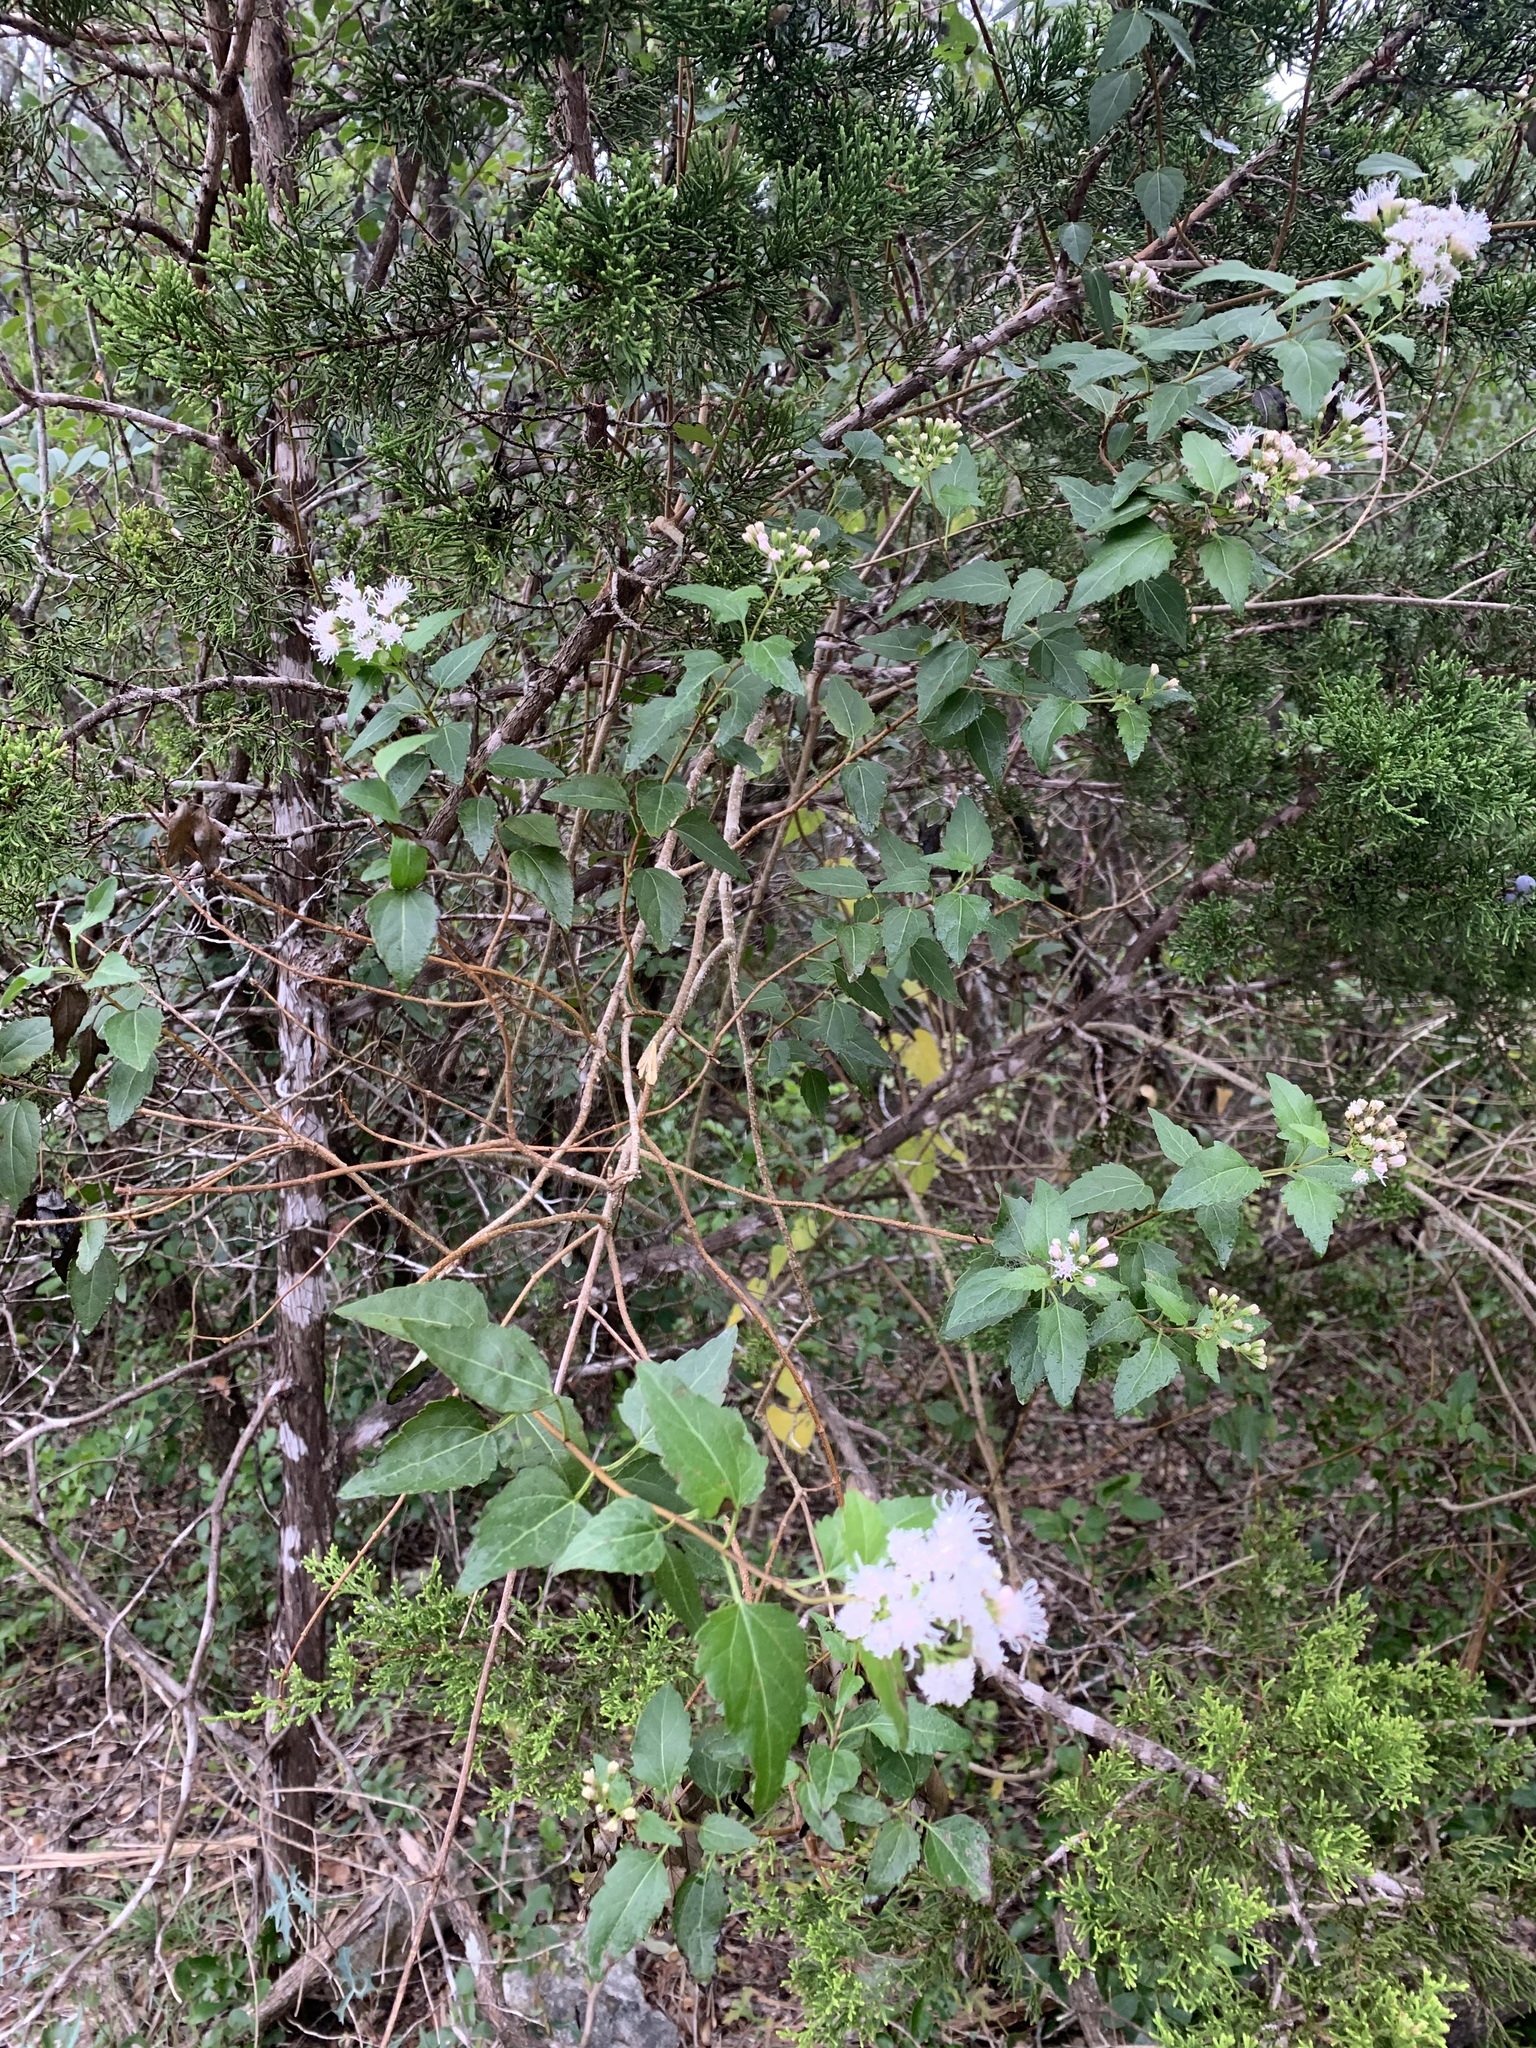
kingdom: Plantae
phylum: Tracheophyta
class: Magnoliopsida
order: Asterales
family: Asteraceae
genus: Ageratina
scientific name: Ageratina havanensis
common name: Havana snakeroot
